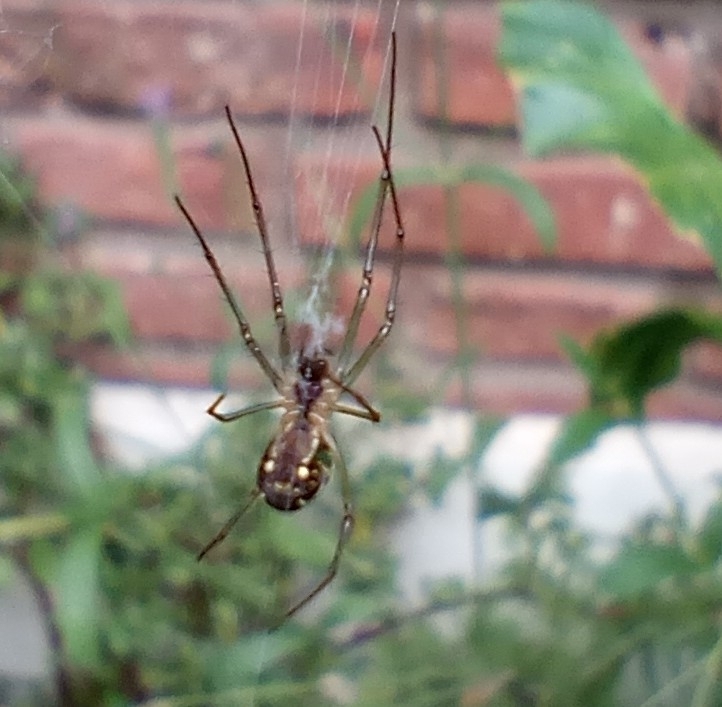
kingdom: Animalia
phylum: Arthropoda
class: Arachnida
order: Araneae
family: Tetragnathidae
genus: Leucauge
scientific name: Leucauge volupis
